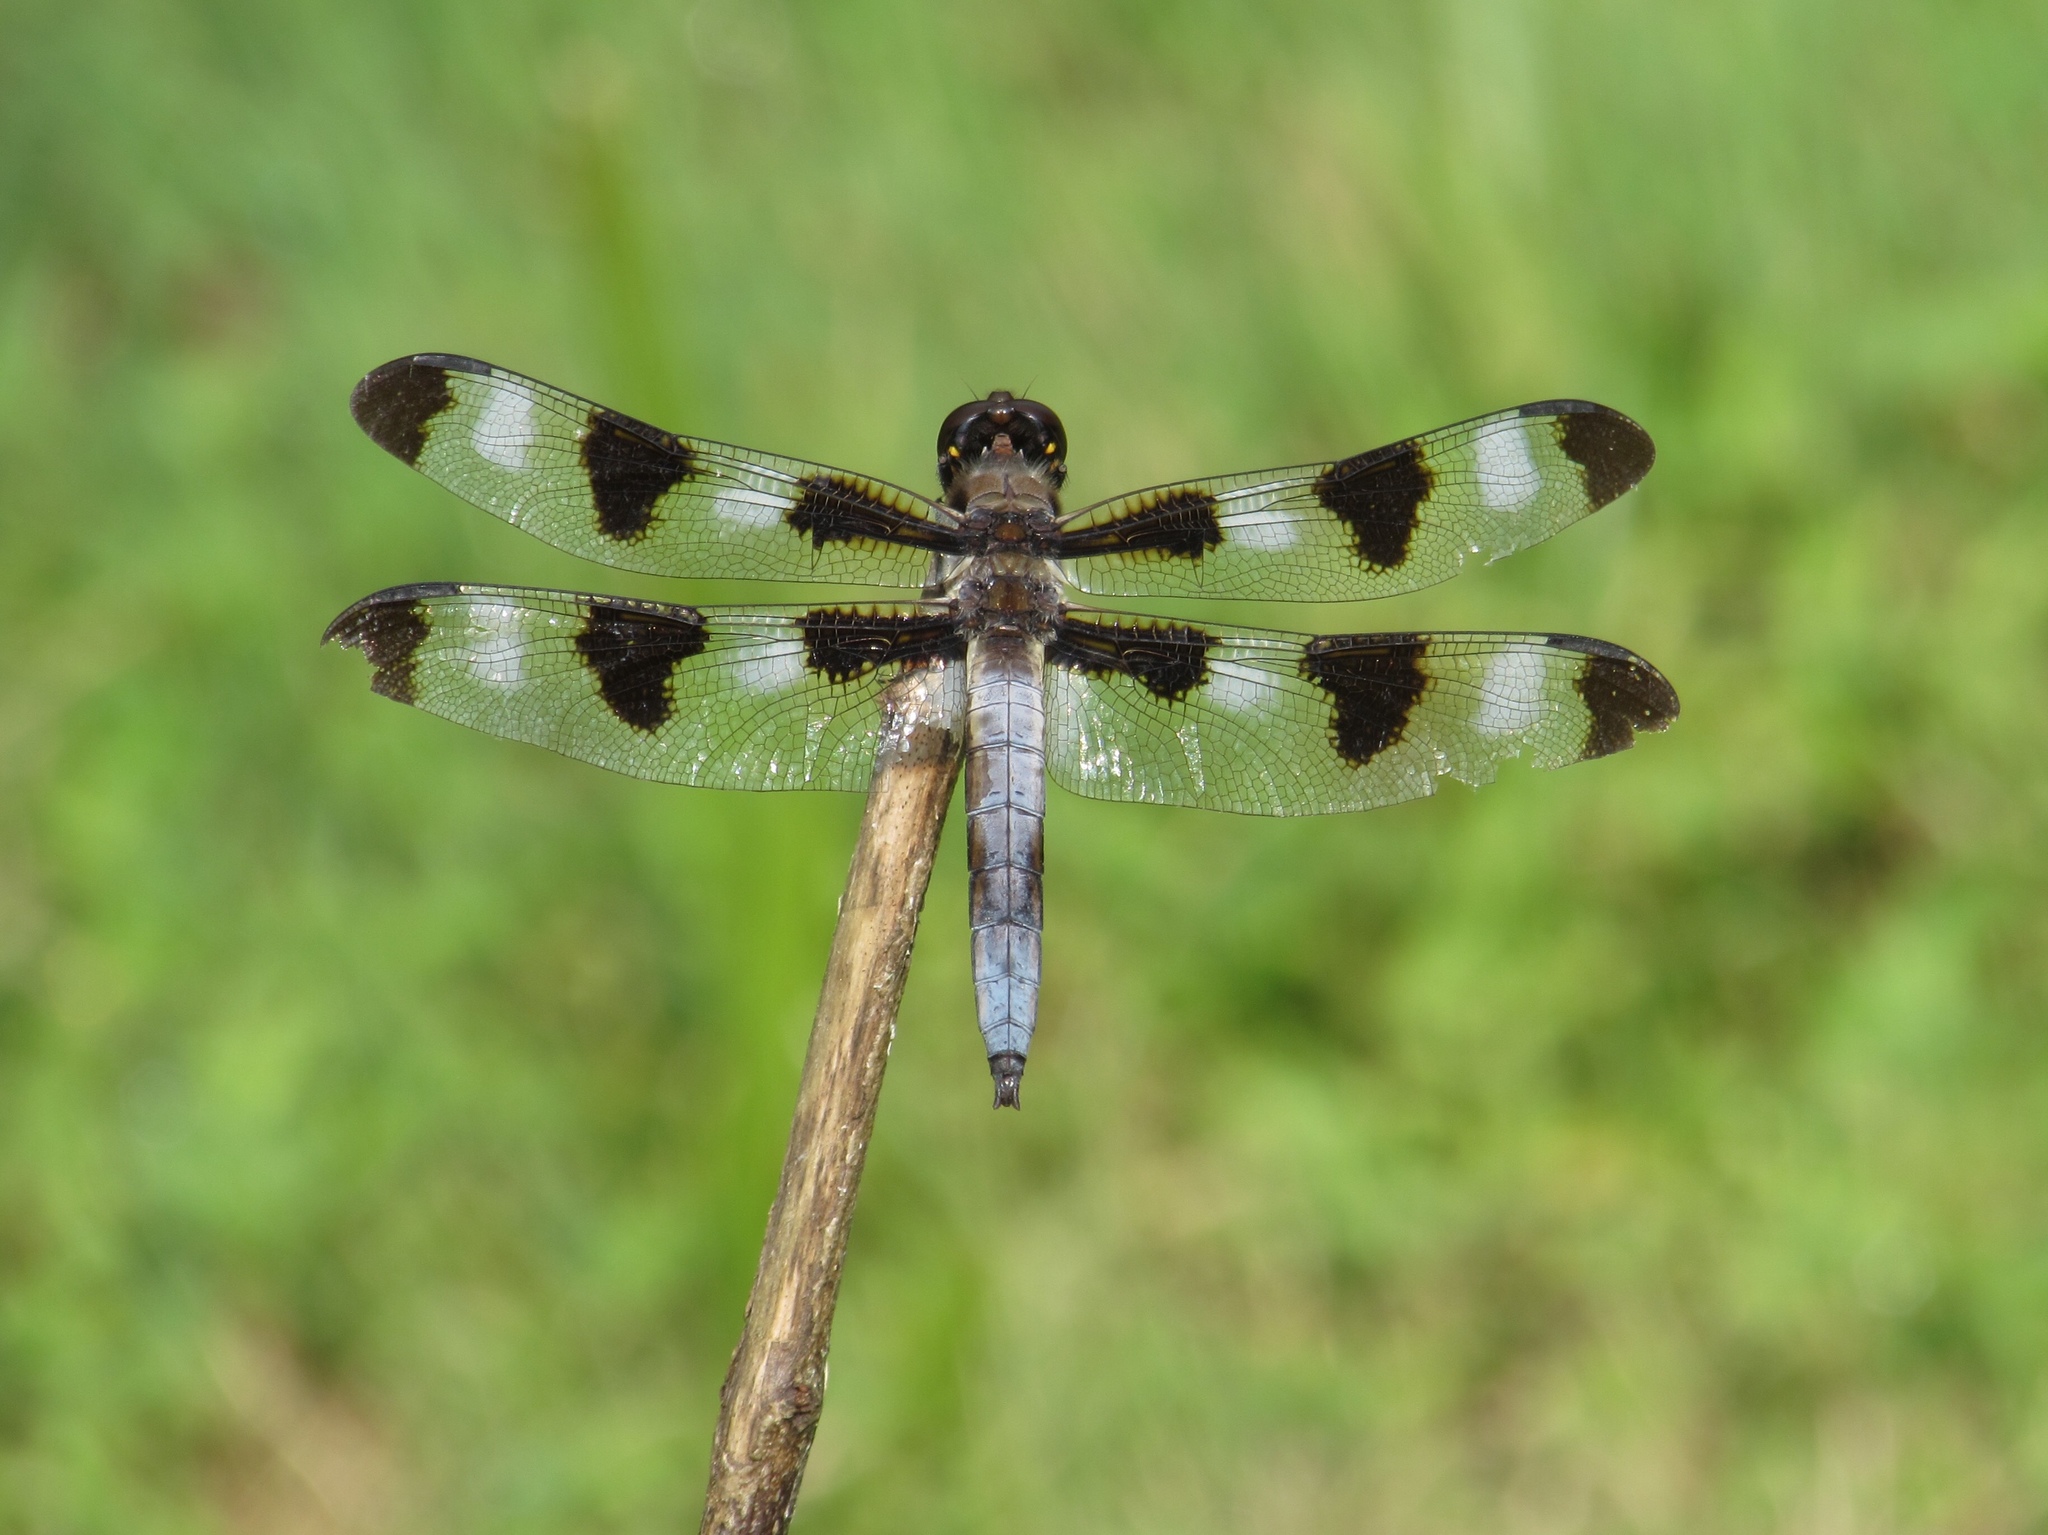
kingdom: Animalia
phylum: Arthropoda
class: Insecta
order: Odonata
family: Libellulidae
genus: Libellula
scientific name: Libellula pulchella
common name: Twelve-spotted skimmer
